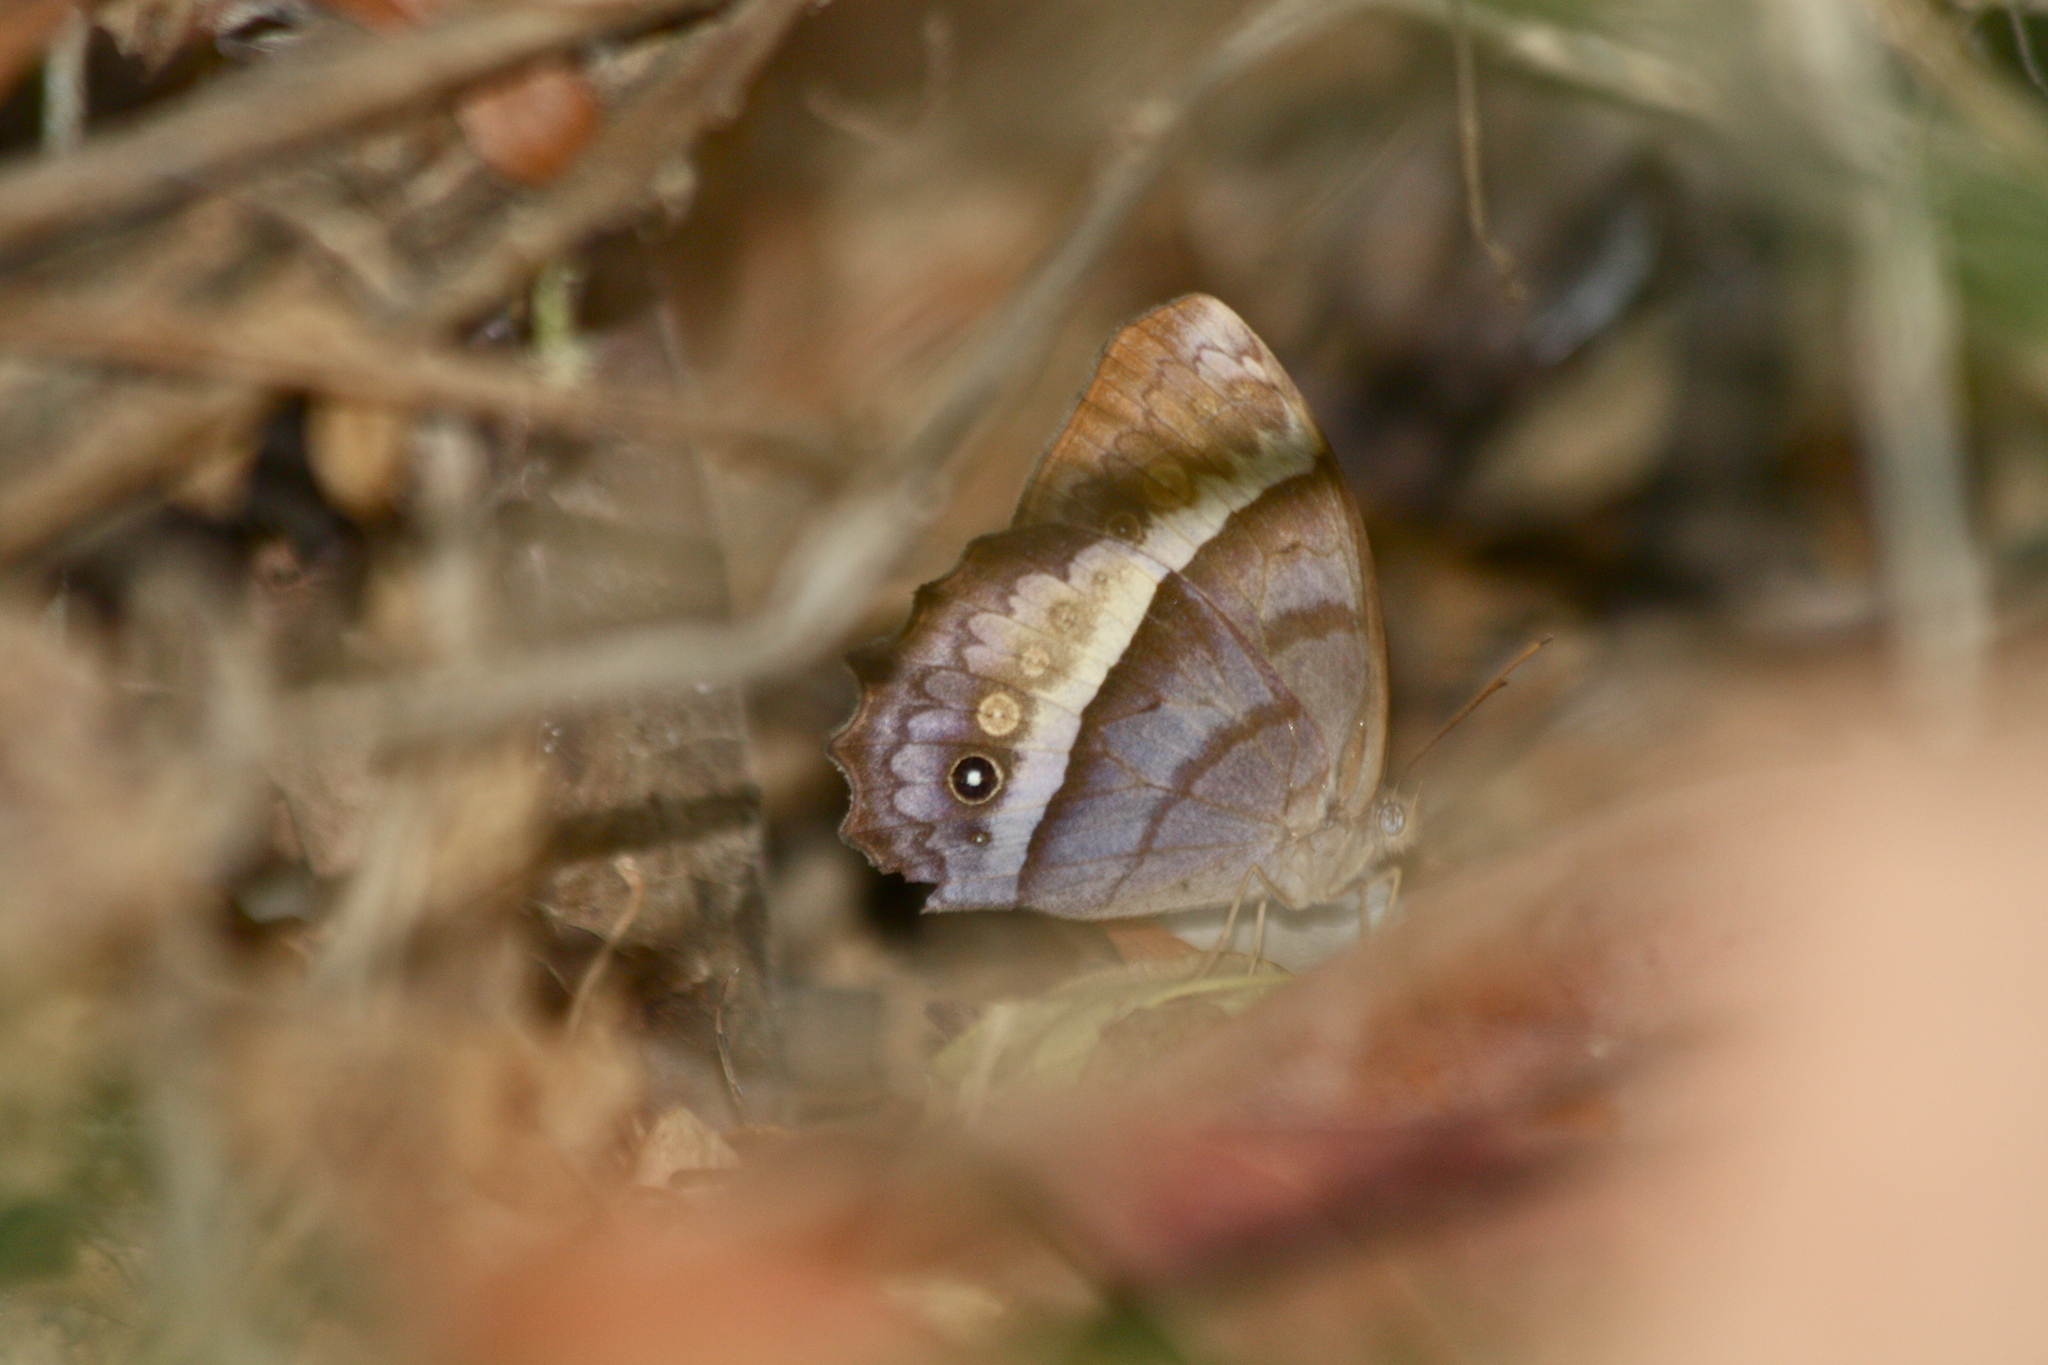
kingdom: Animalia
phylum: Arthropoda
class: Insecta
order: Lepidoptera
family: Nymphalidae
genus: Taygetis
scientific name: Taygetis andromeda
